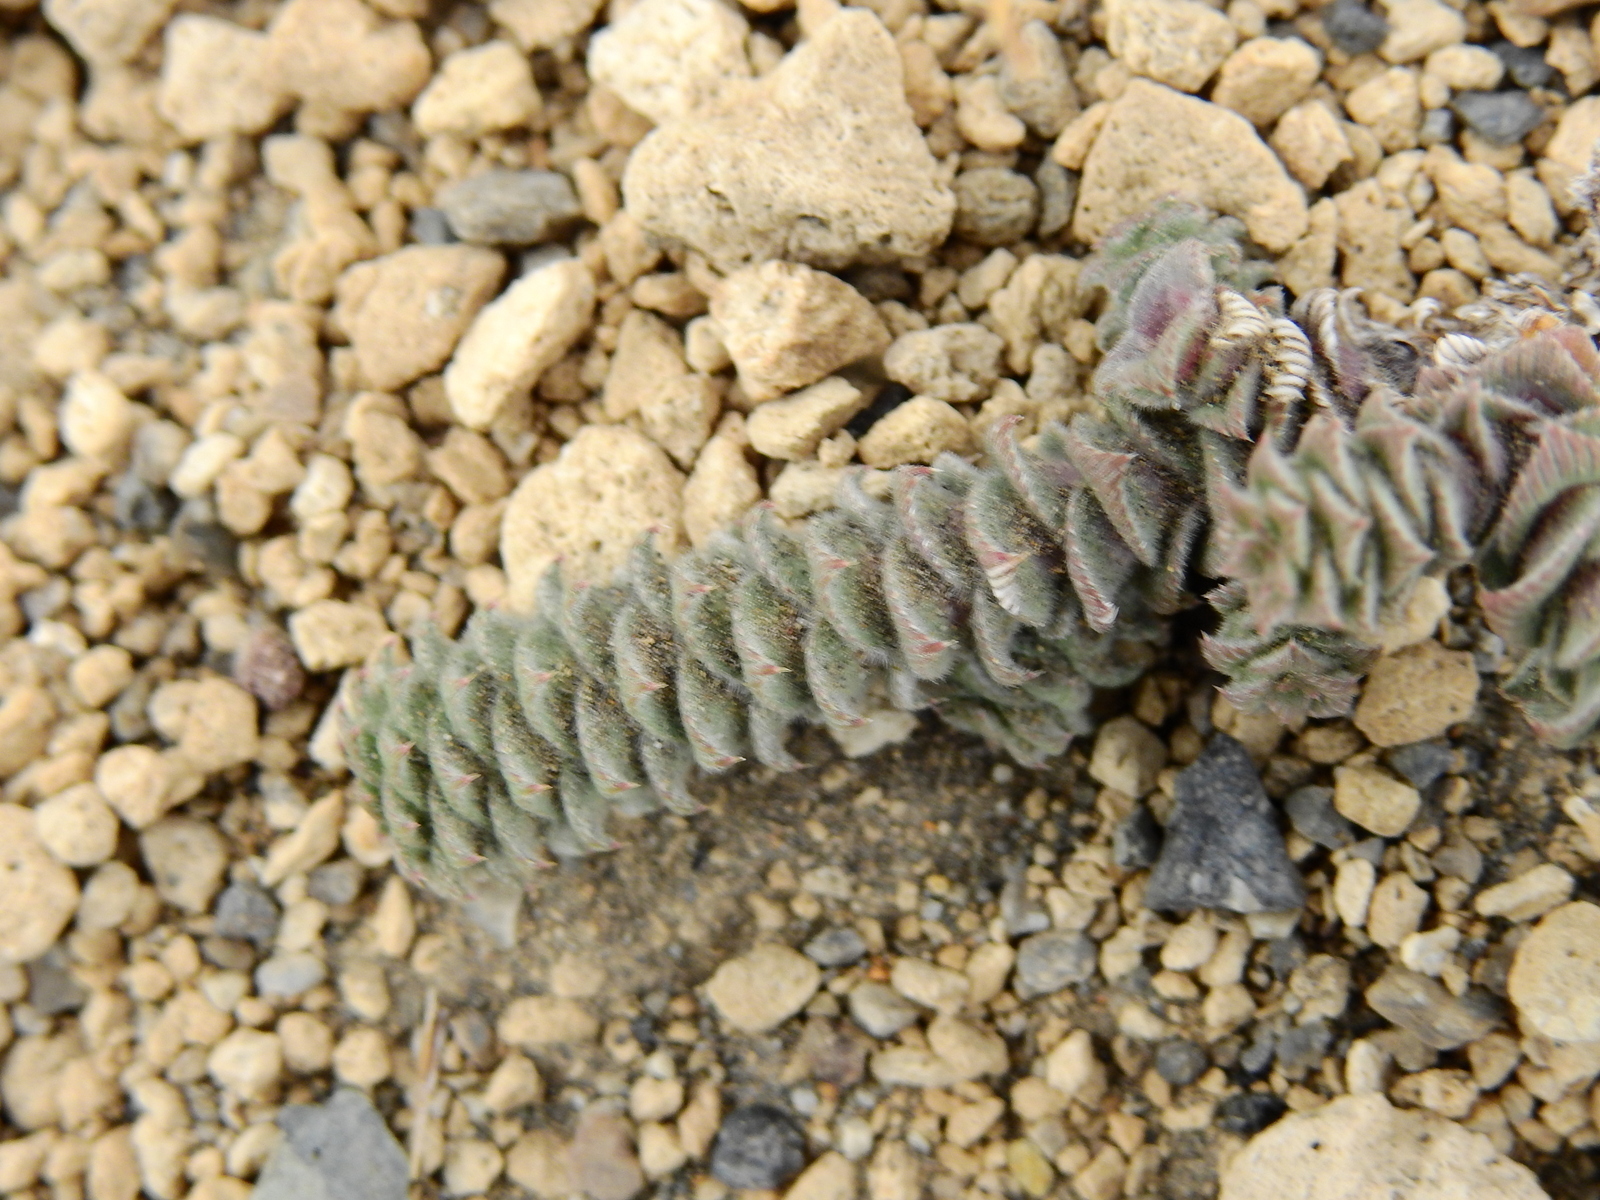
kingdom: Plantae
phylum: Tracheophyta
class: Magnoliopsida
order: Asterales
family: Asteraceae
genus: Nassauvia
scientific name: Nassauvia revoluta
